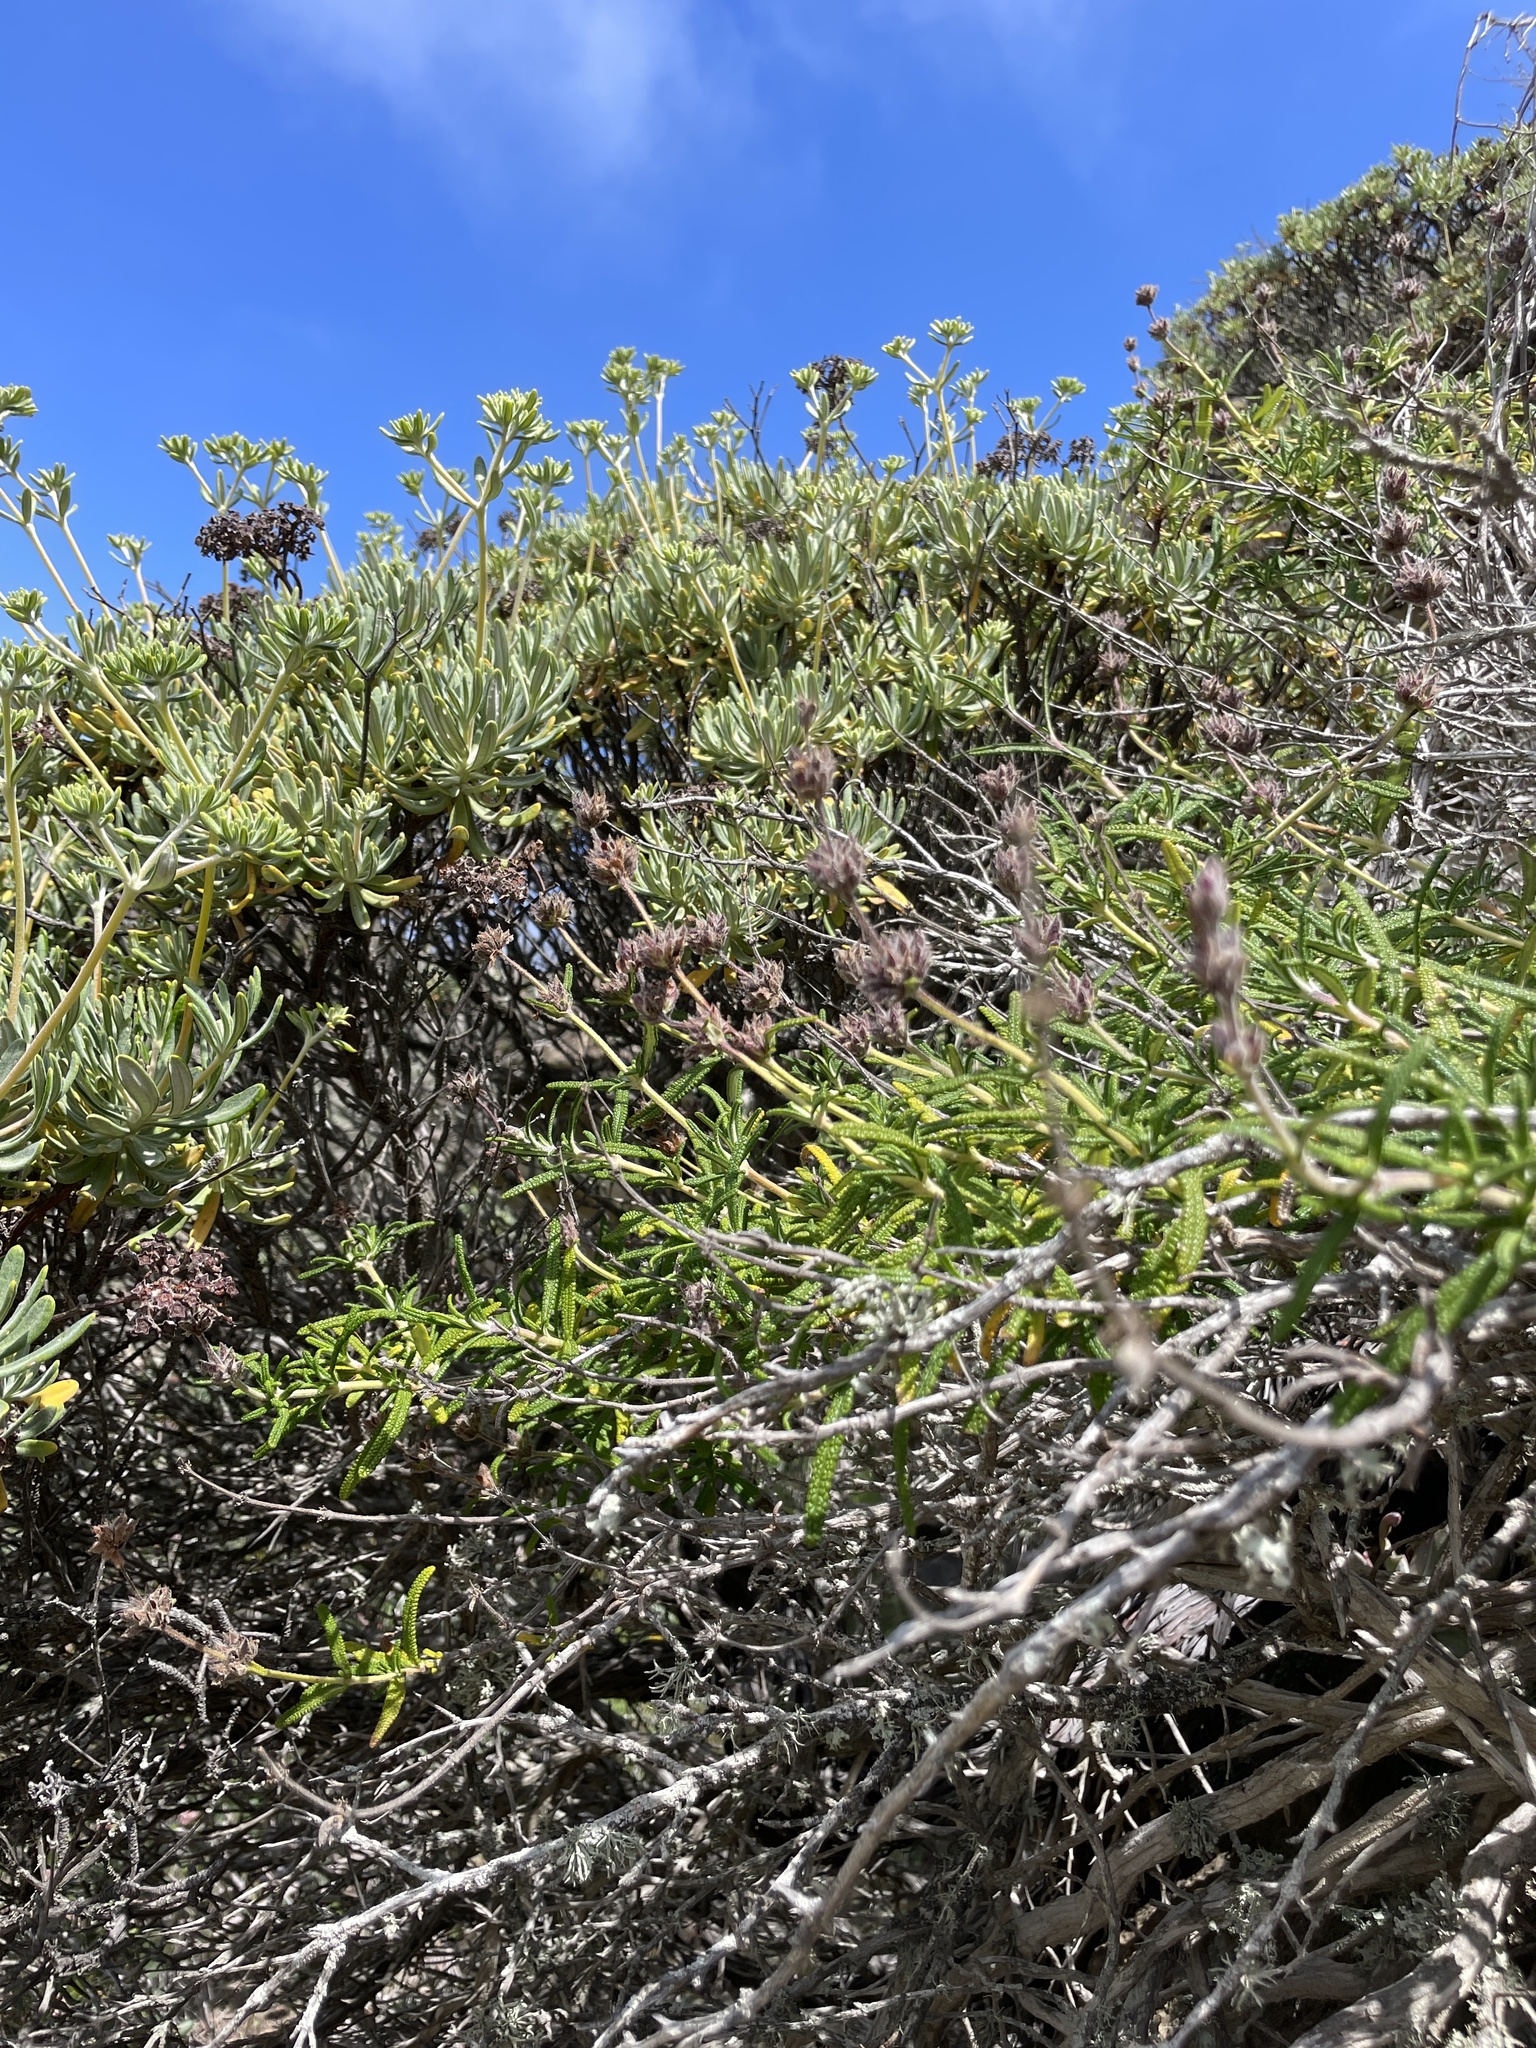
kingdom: Plantae
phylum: Tracheophyta
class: Magnoliopsida
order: Lamiales
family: Lamiaceae
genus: Salvia
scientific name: Salvia brandegeei
